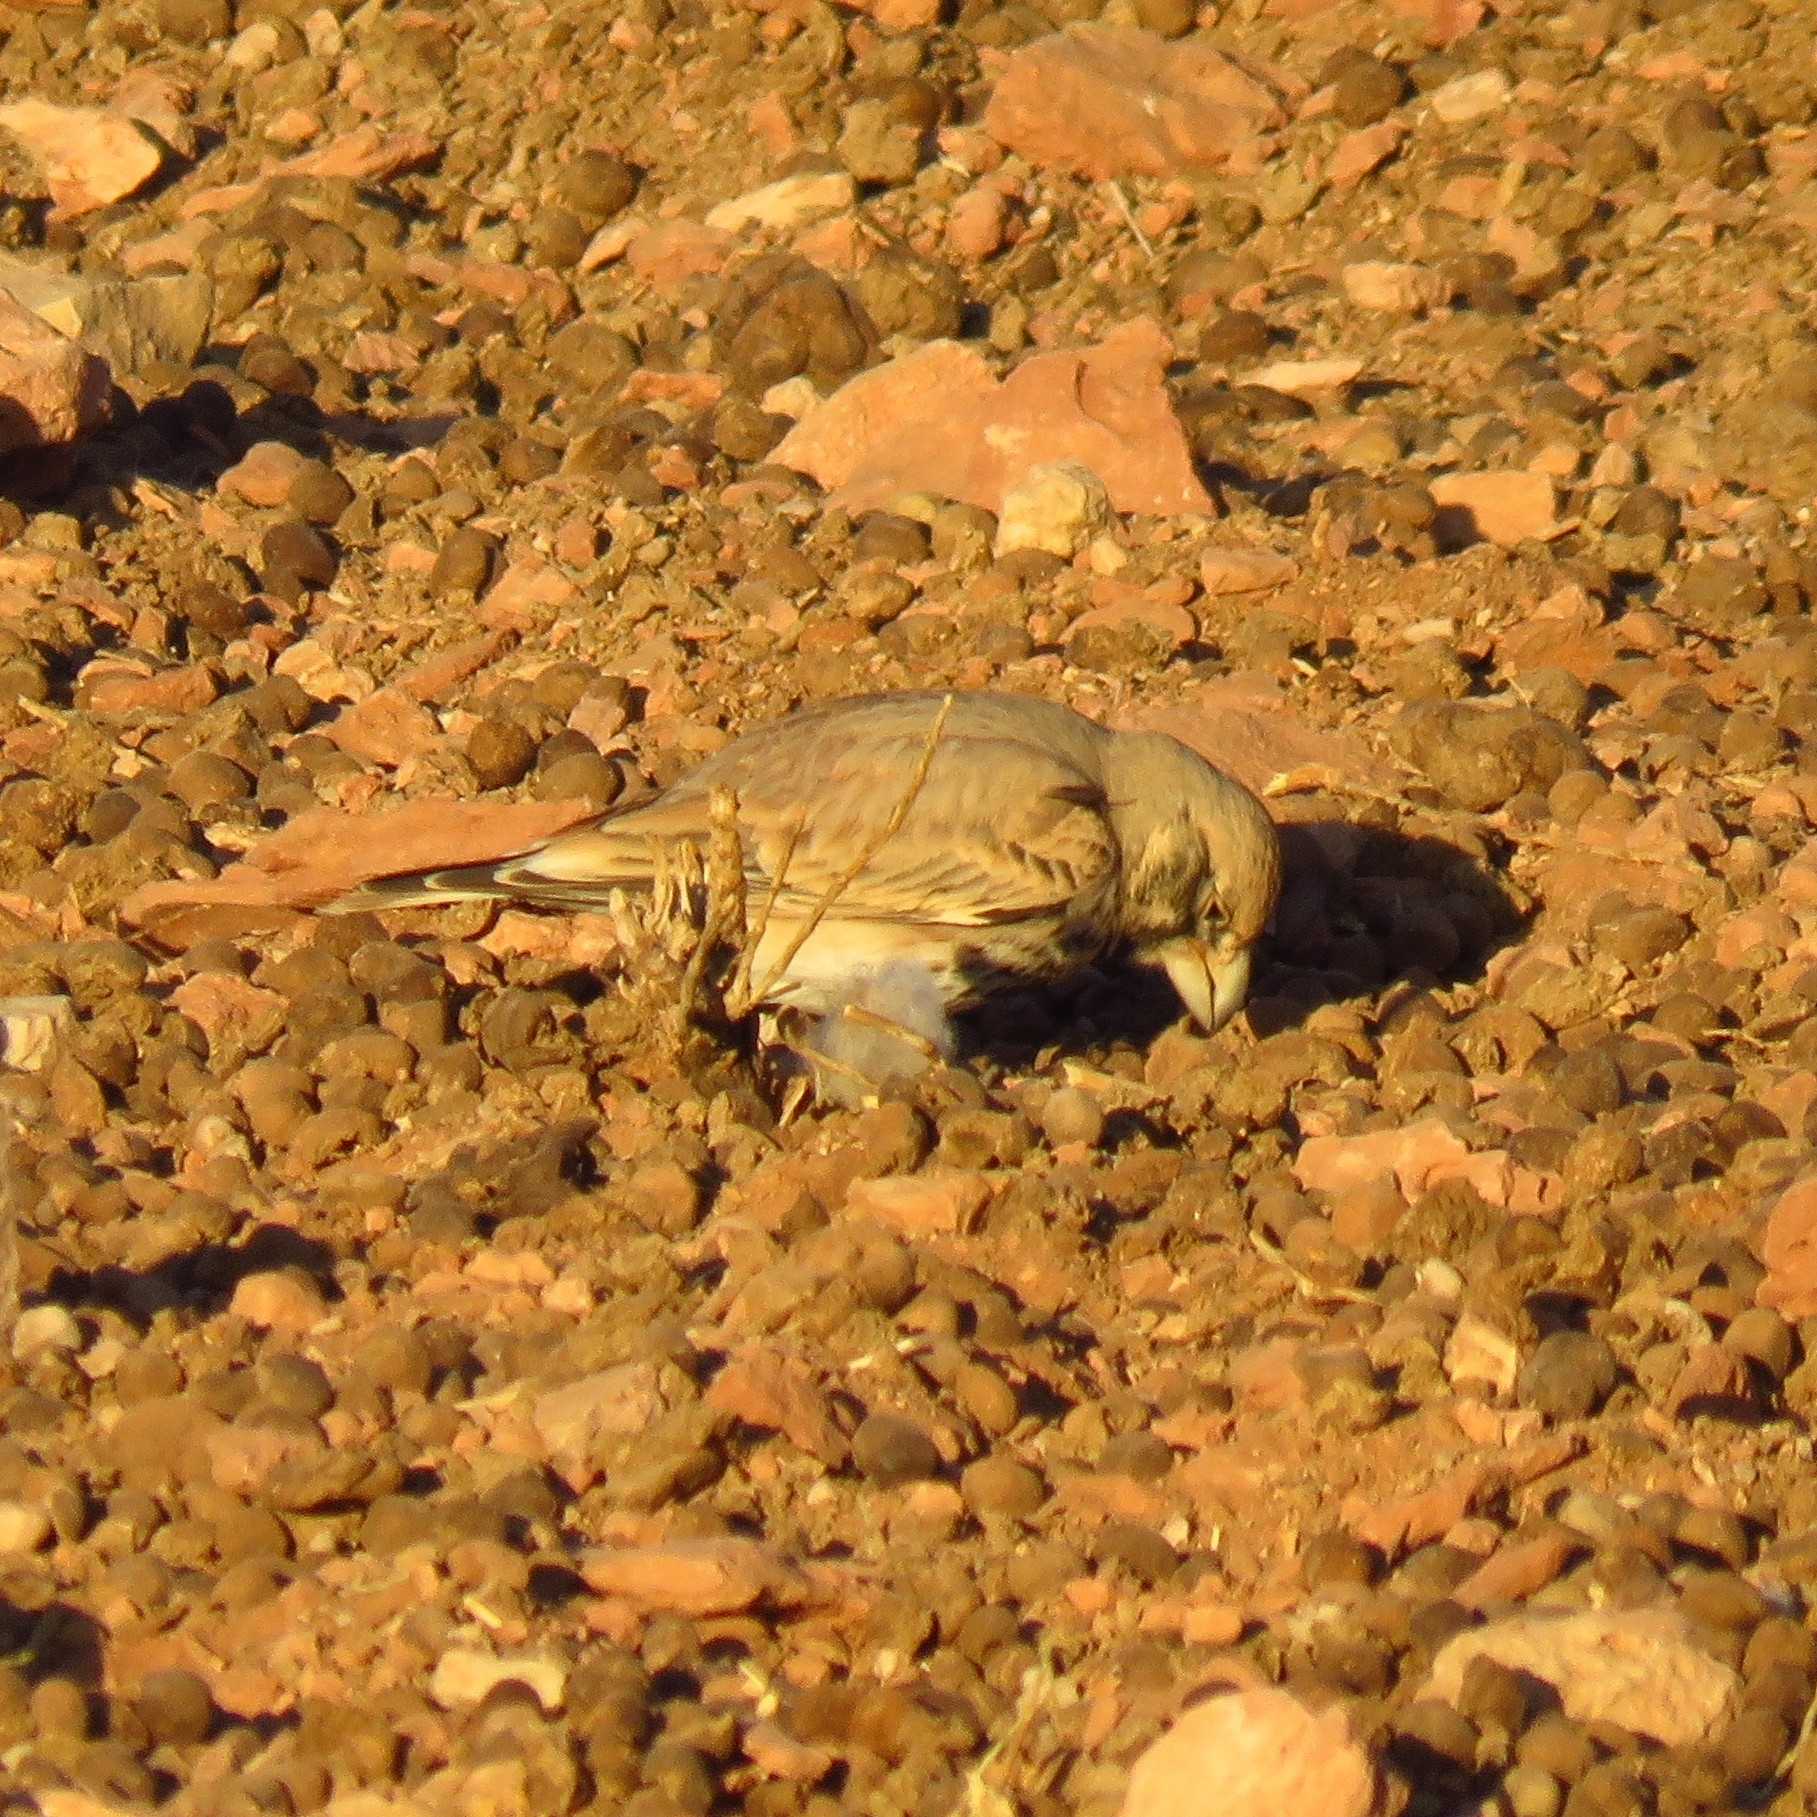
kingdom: Animalia
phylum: Chordata
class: Aves
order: Passeriformes
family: Alaudidae
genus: Ramphocoris
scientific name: Ramphocoris clotbey
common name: Thick-billed lark
